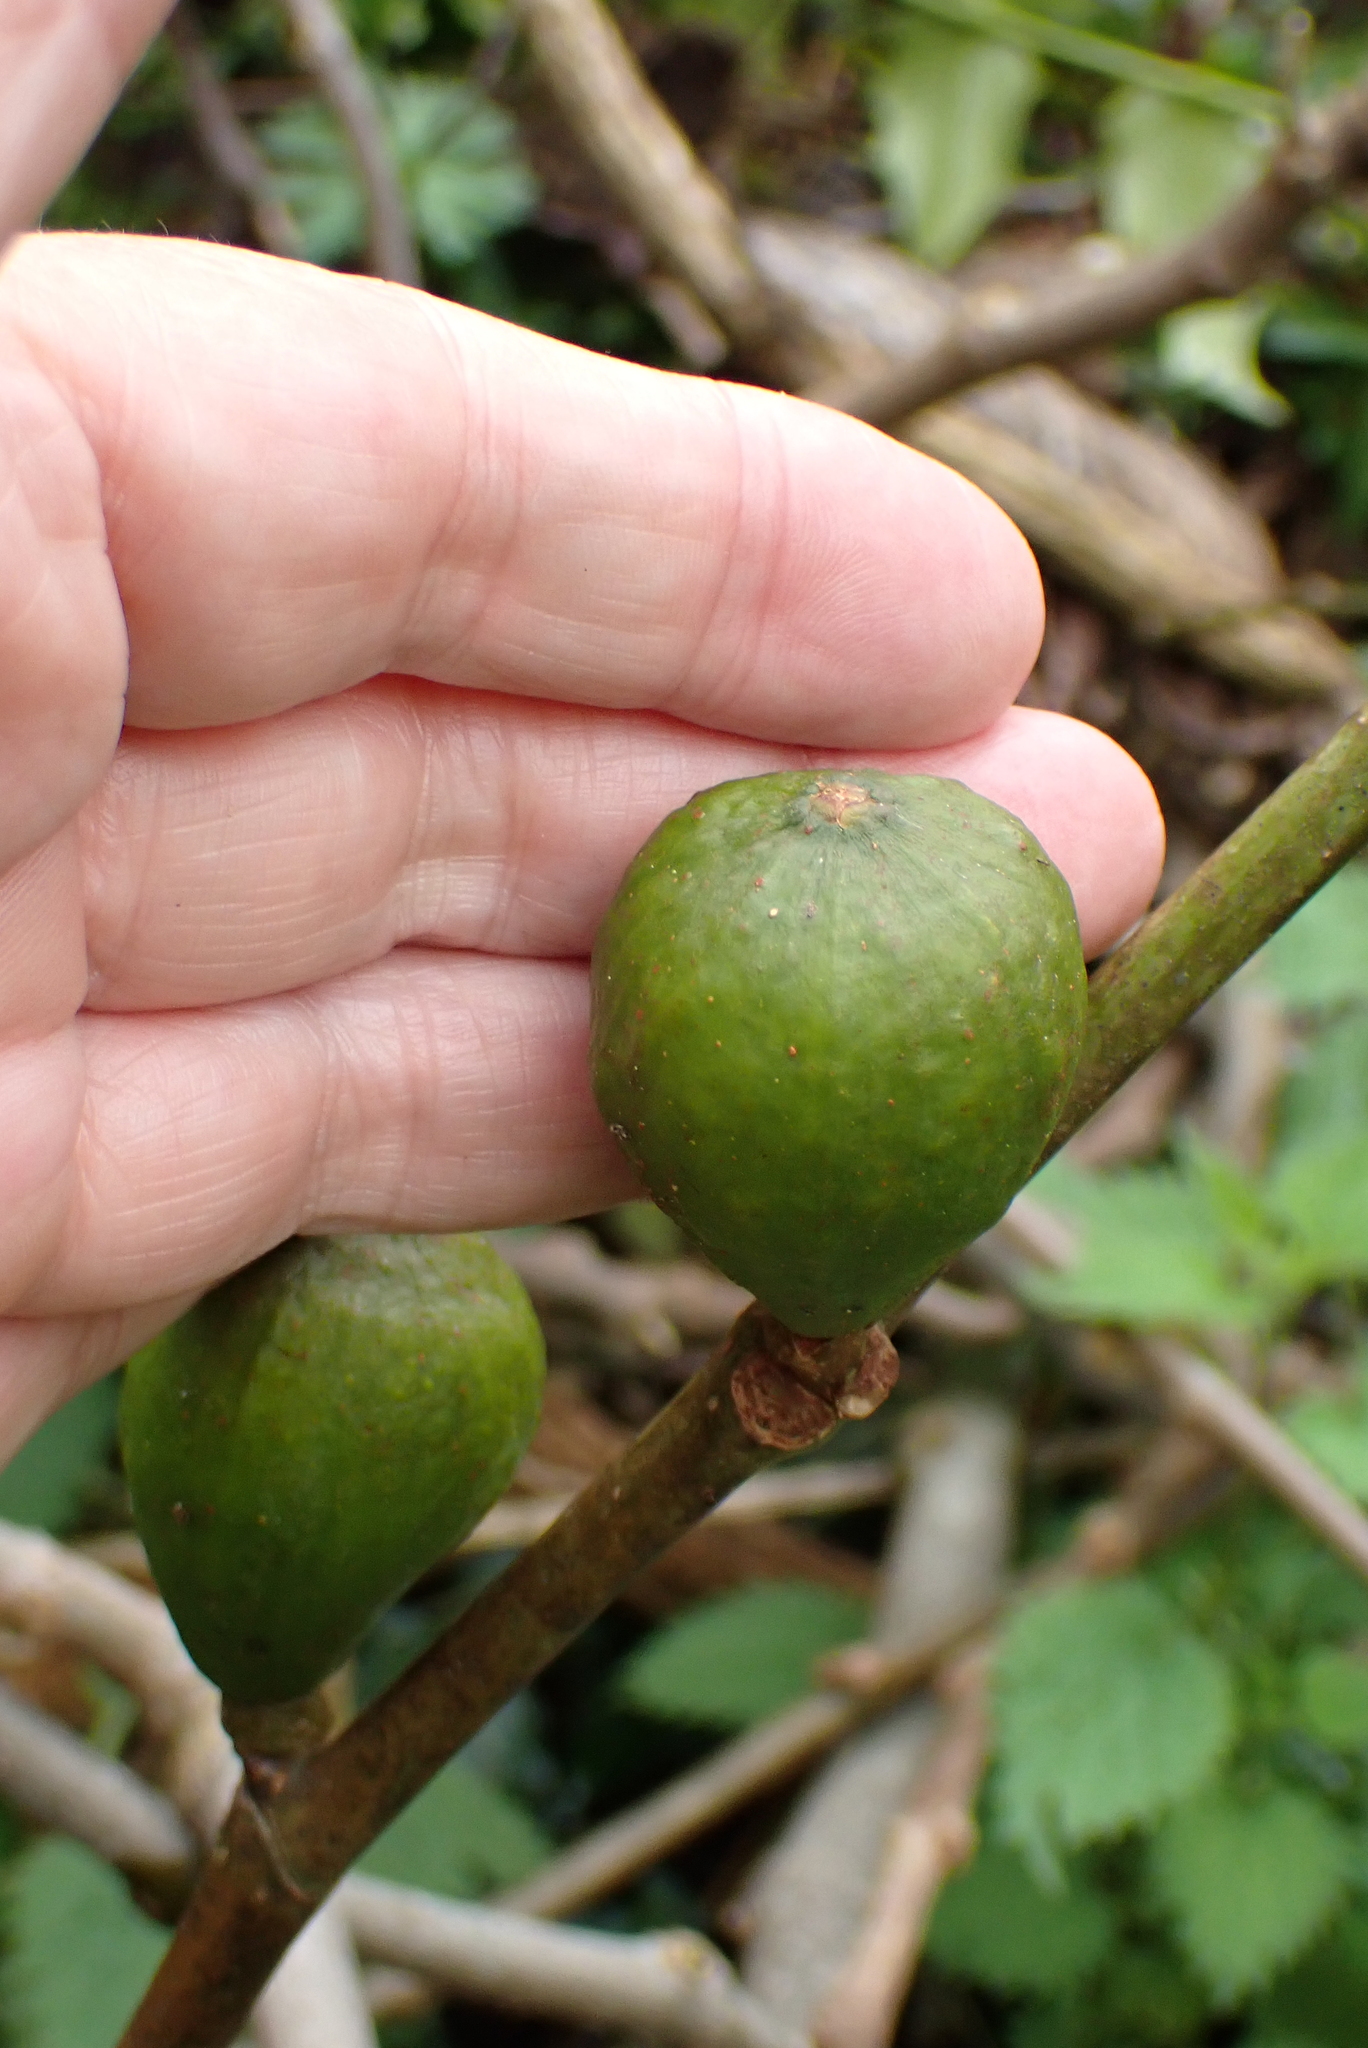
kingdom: Plantae
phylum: Tracheophyta
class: Magnoliopsida
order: Rosales
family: Moraceae
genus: Ficus
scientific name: Ficus carica
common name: Fig
